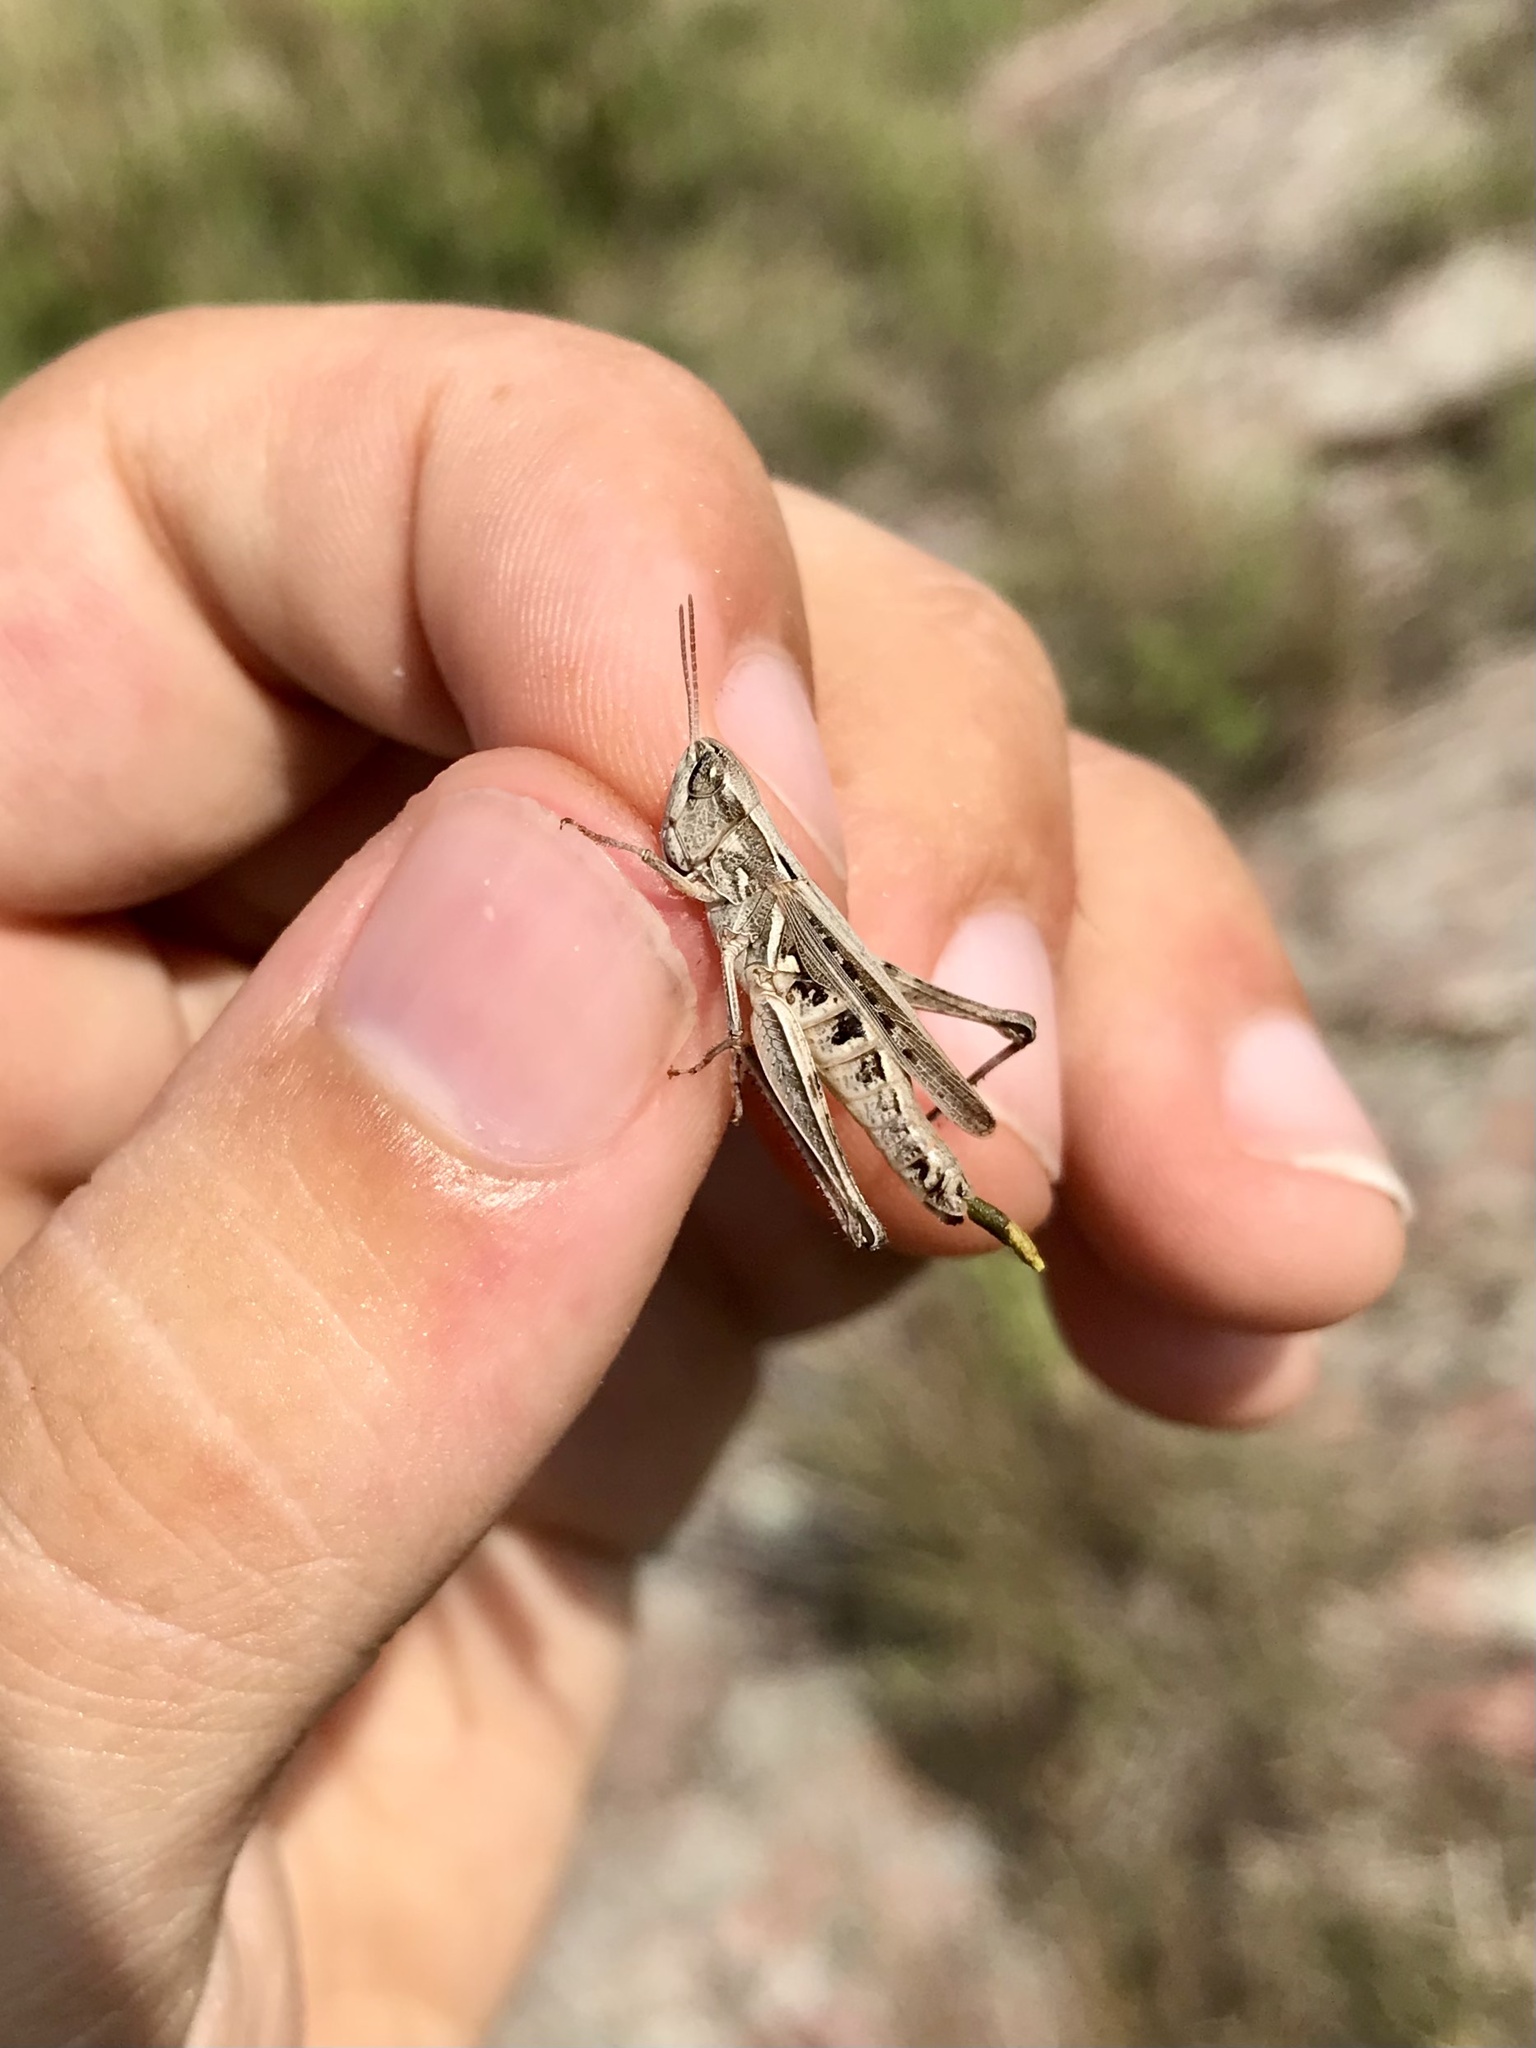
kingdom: Animalia
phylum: Arthropoda
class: Insecta
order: Orthoptera
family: Acrididae
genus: Orphulella
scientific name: Orphulella speciosa
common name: Pasture grasshopper
